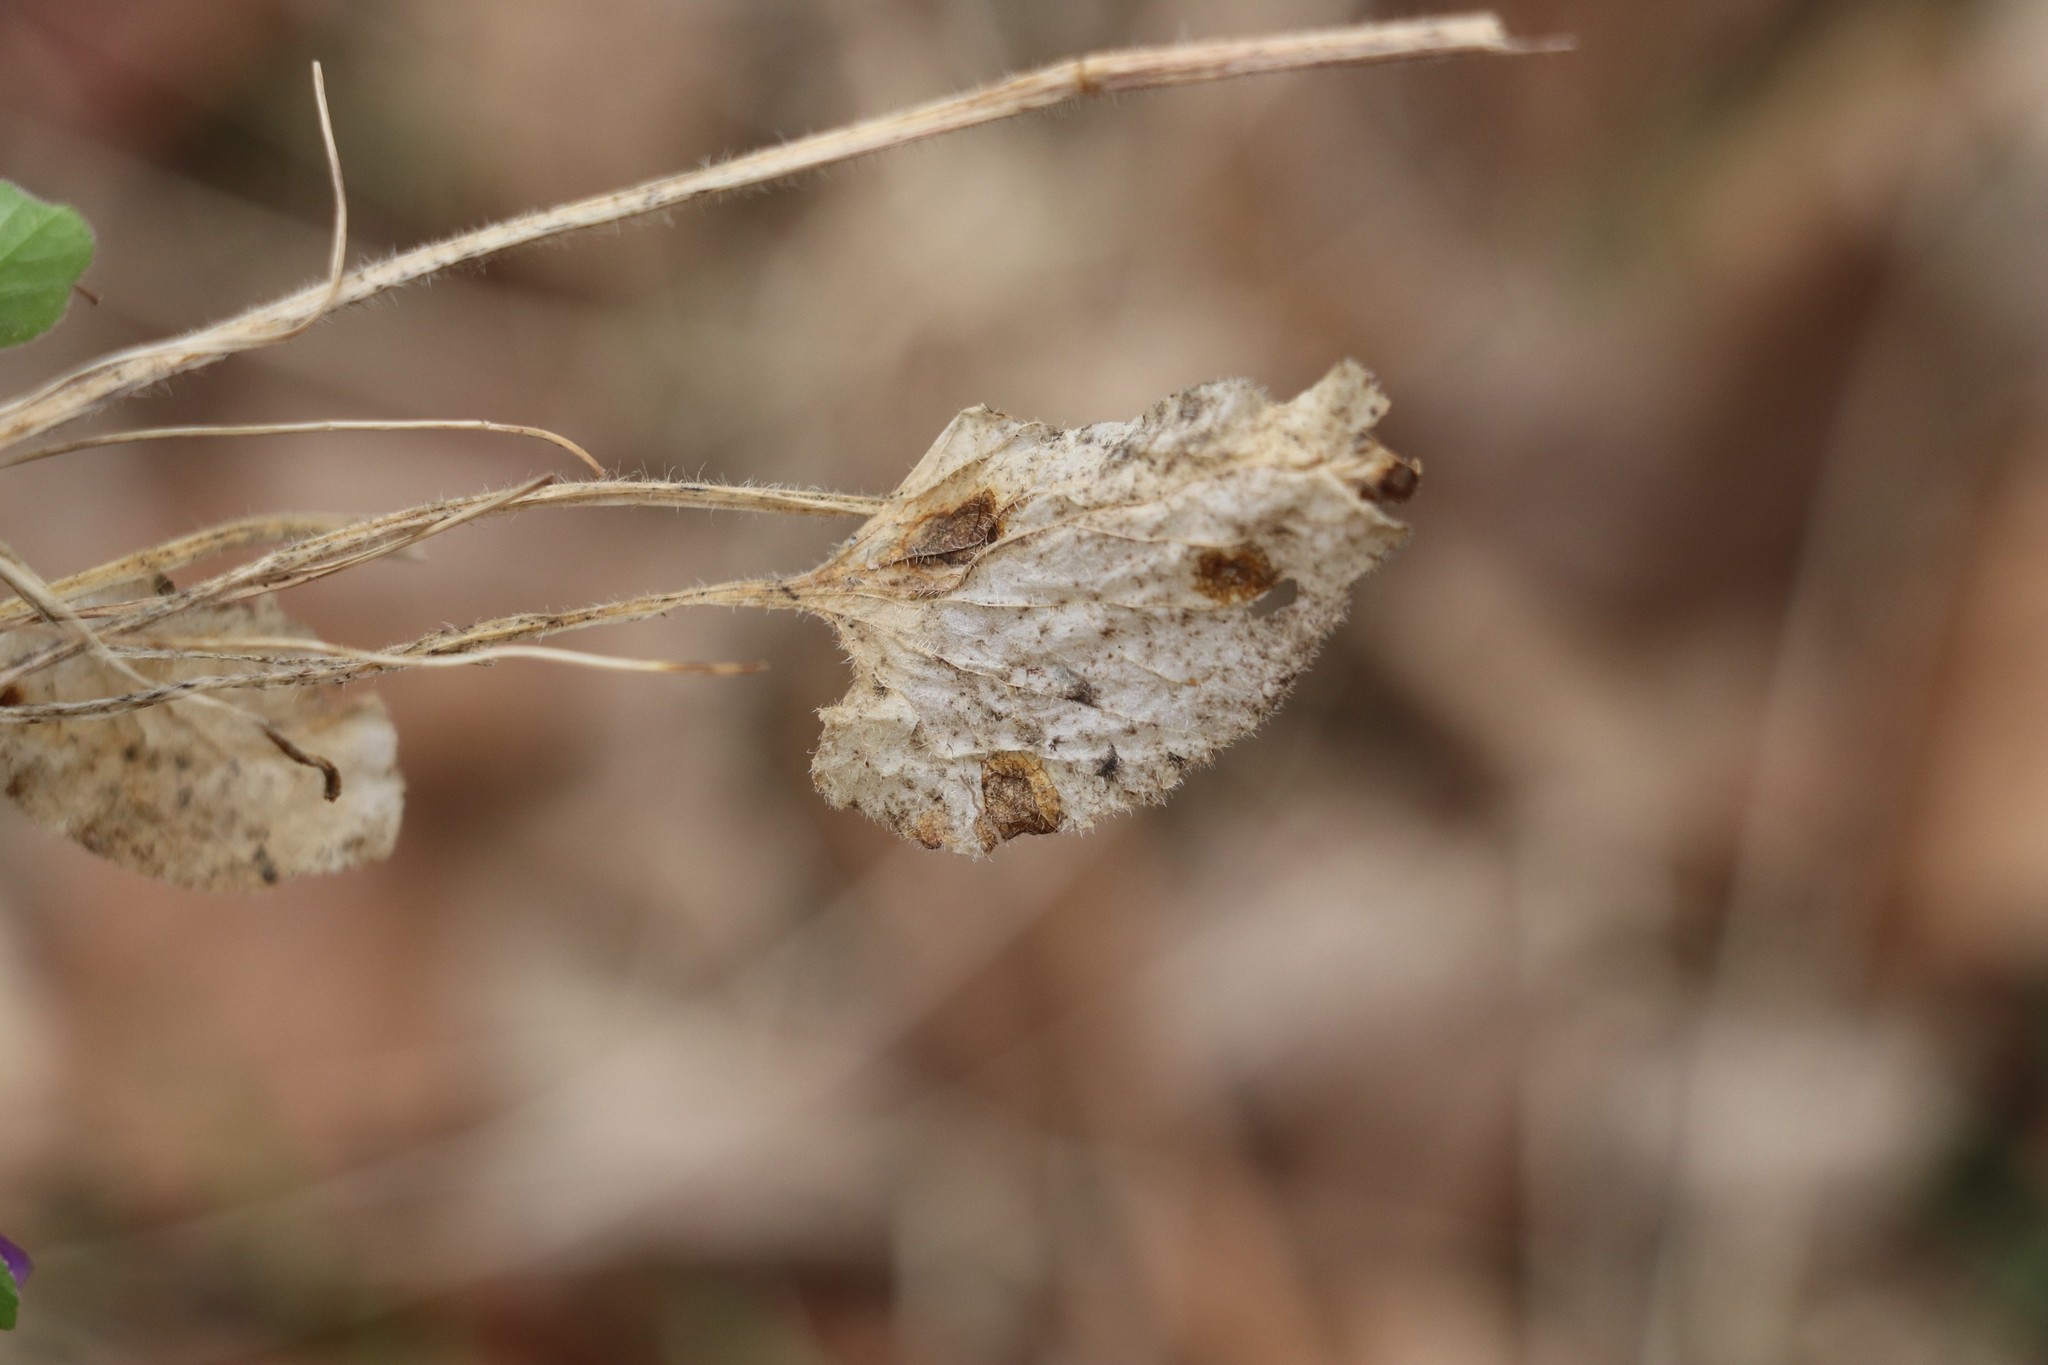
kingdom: Plantae
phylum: Tracheophyta
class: Magnoliopsida
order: Malpighiales
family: Violaceae
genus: Viola
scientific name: Viola hirta
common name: Hairy violet
